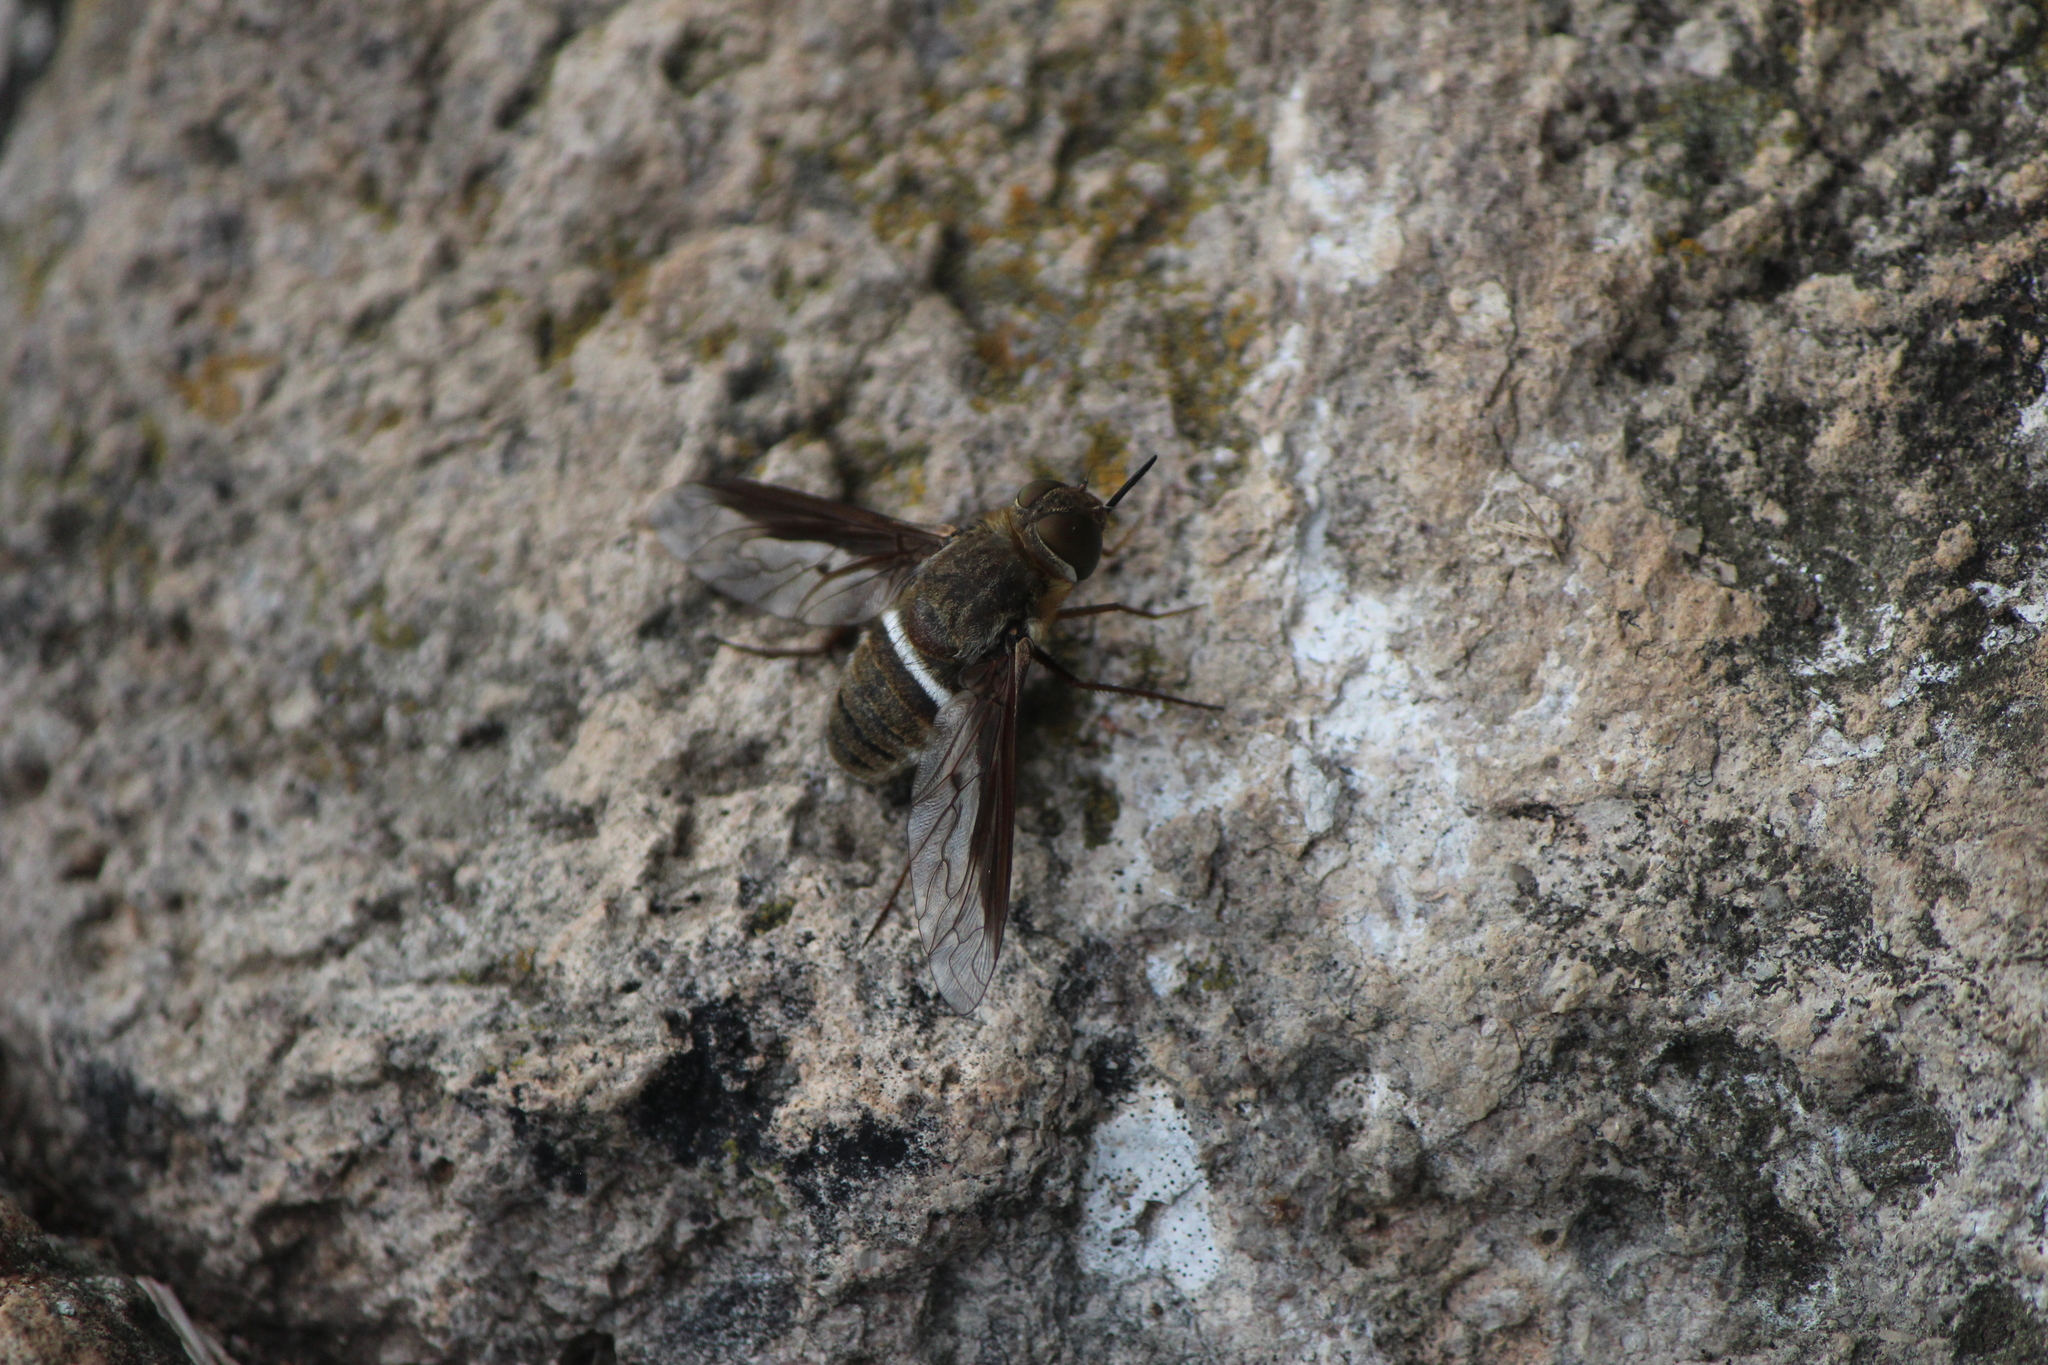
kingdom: Animalia
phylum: Arthropoda
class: Insecta
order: Diptera
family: Bombyliidae
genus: Exoprosopa
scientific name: Exoprosopa rostrifera
